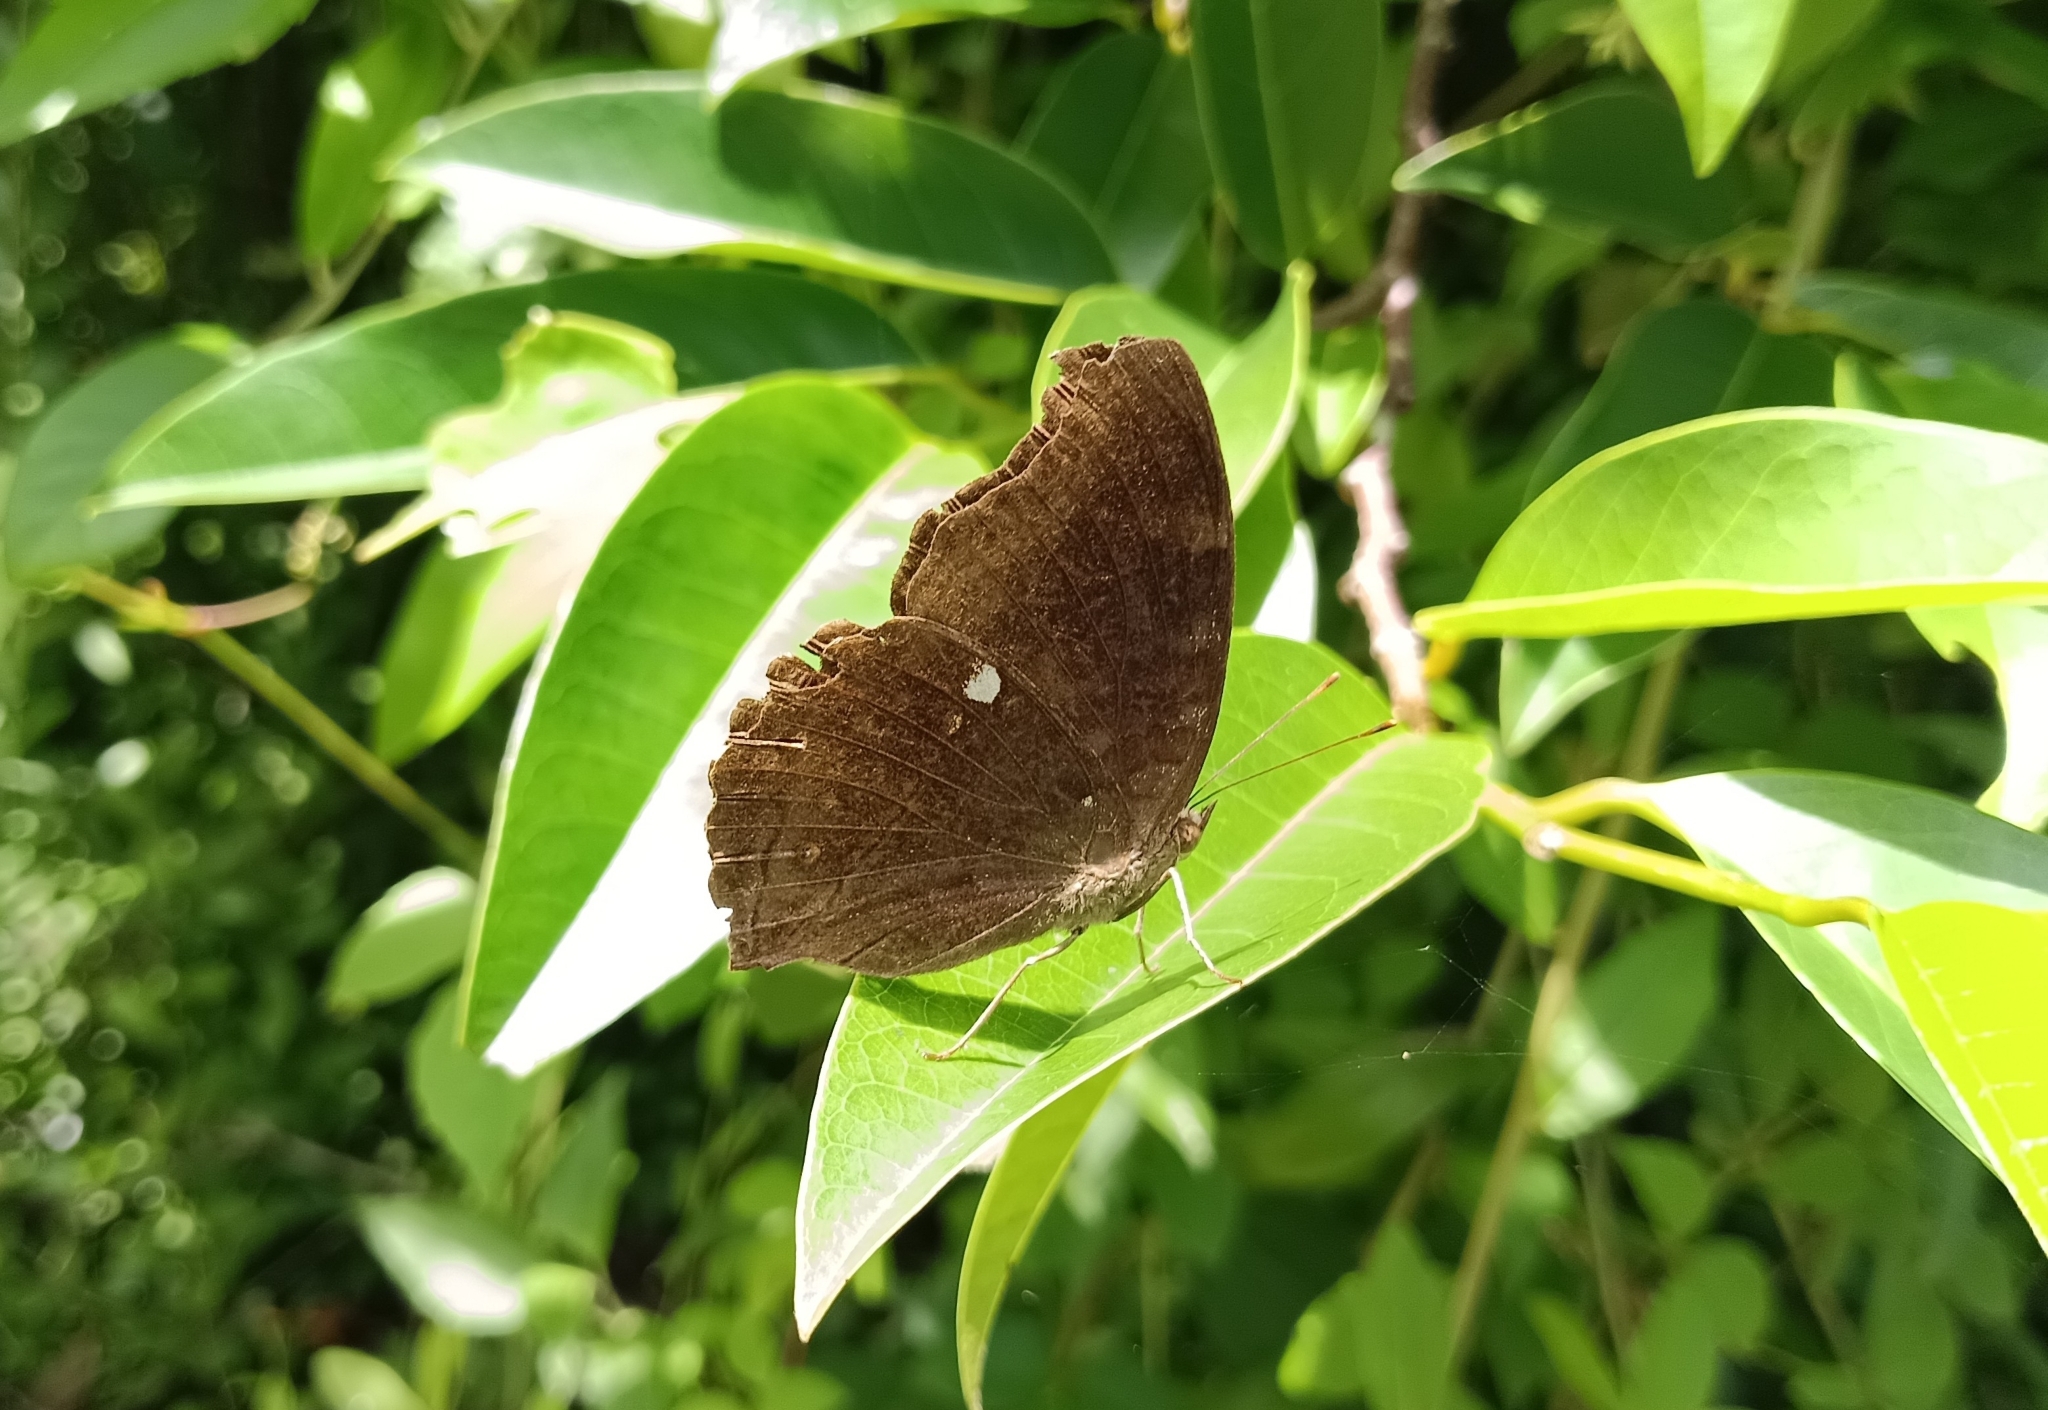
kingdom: Animalia
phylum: Arthropoda
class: Insecta
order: Lepidoptera
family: Nymphalidae
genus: Junonia
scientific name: Junonia iphita
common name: Chocolate pansy
